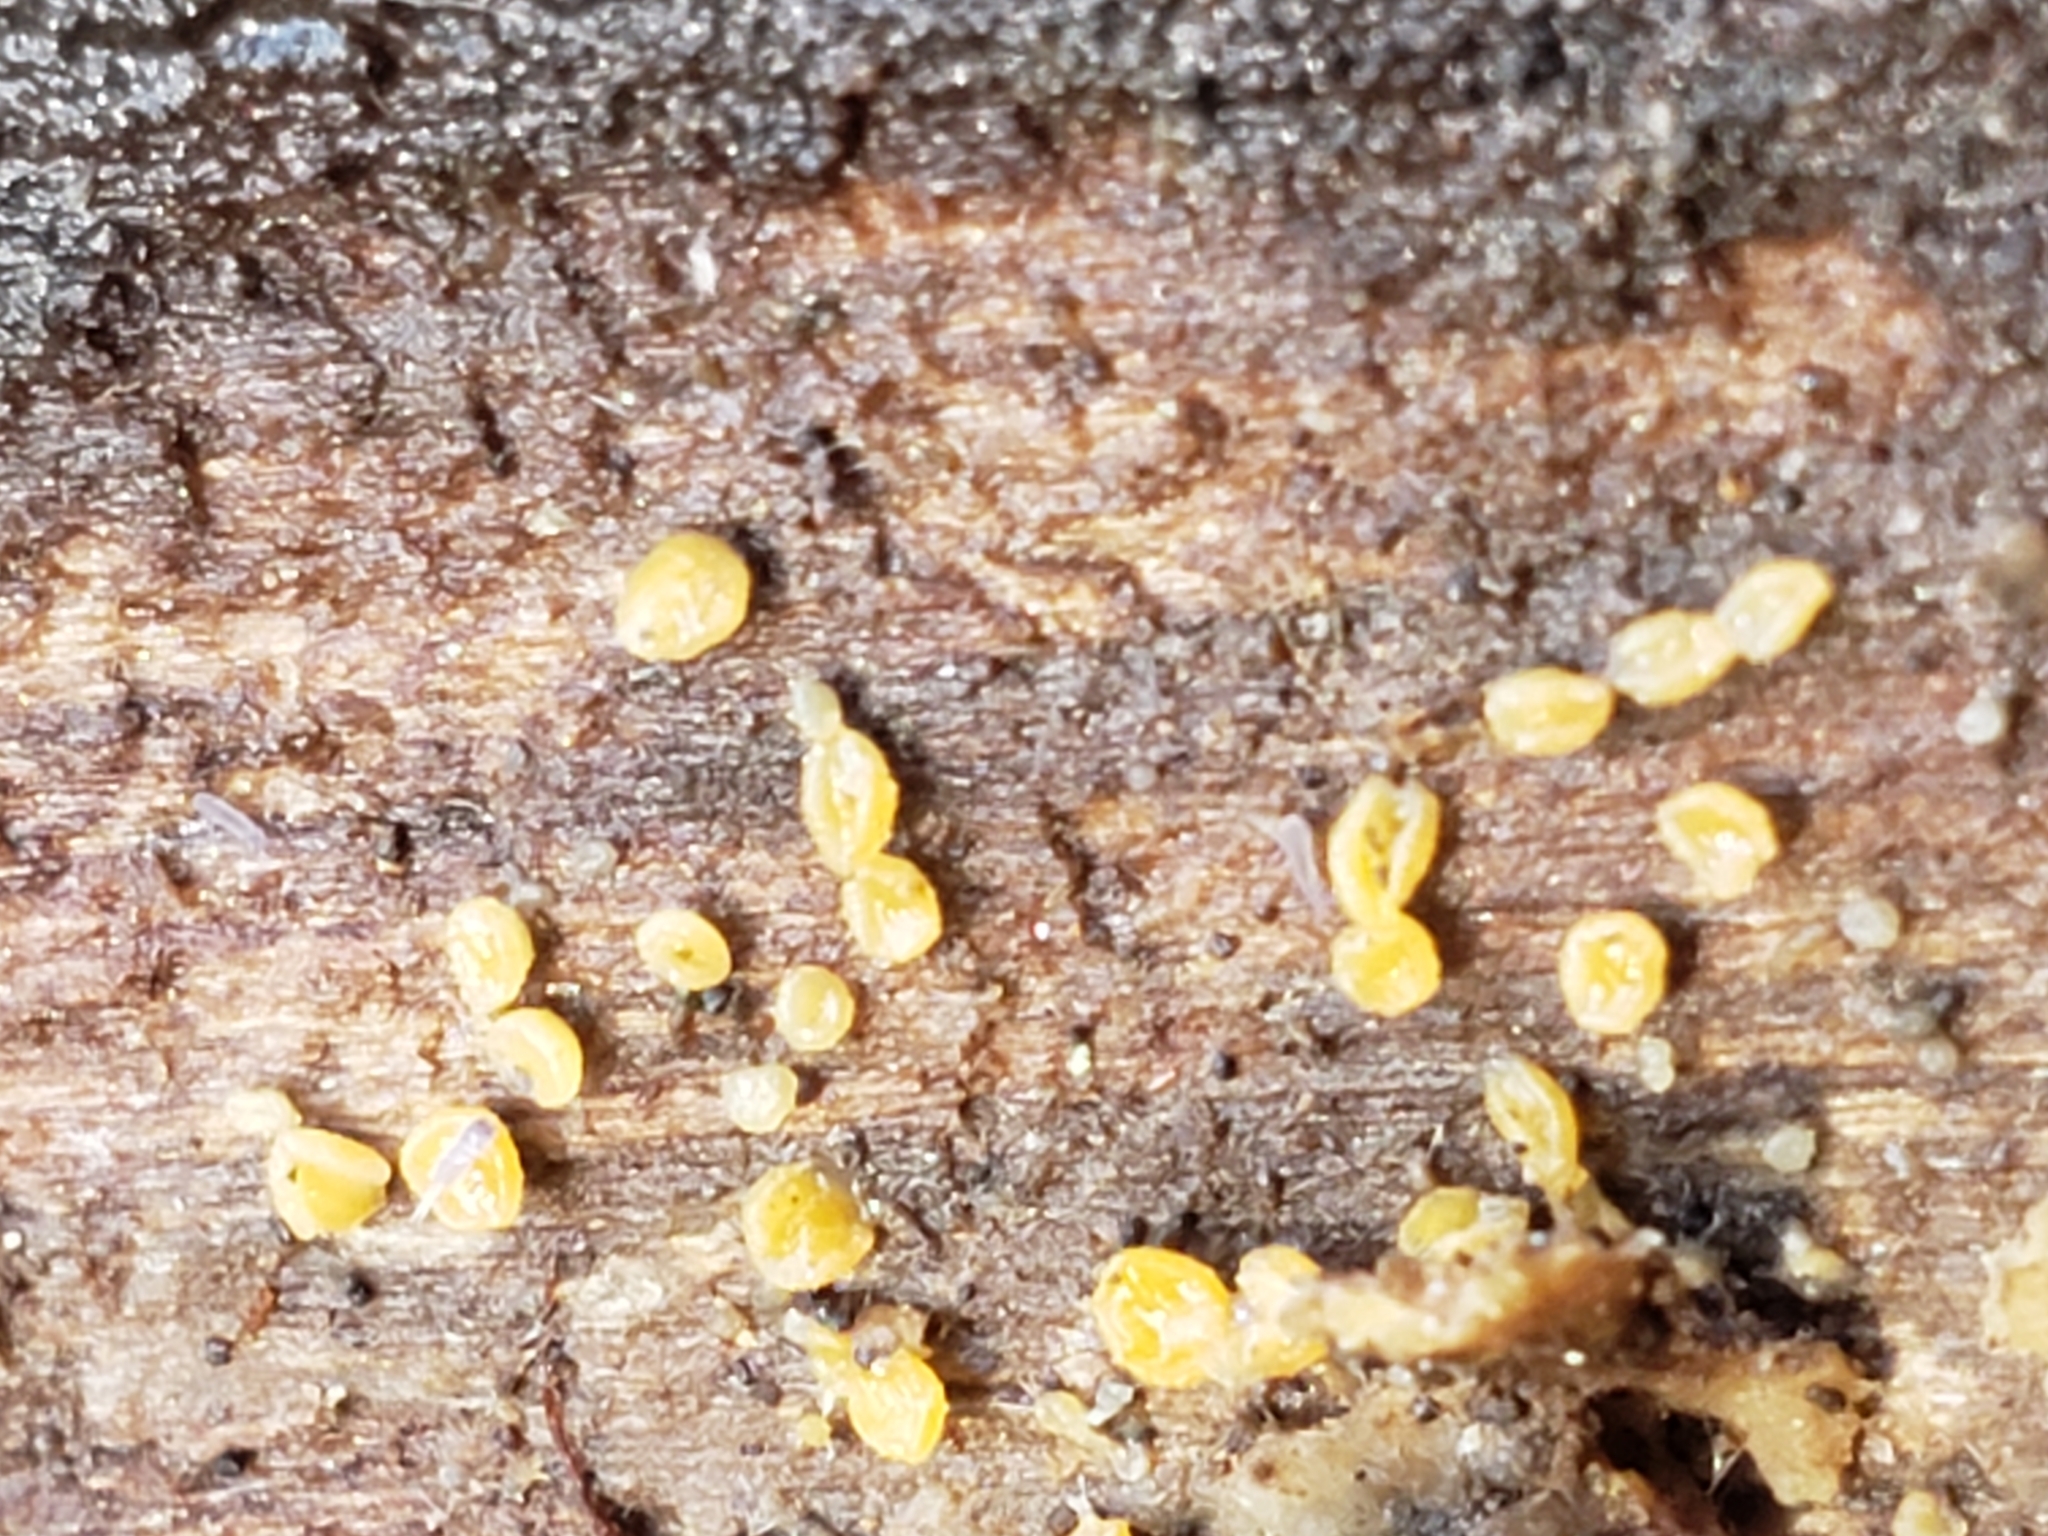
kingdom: Fungi
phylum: Basidiomycota
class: Dacrymycetes
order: Dacrymycetales
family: Dacrymycetaceae
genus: Dacrymyces
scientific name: Dacrymyces stillatus
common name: Common jelly spot
